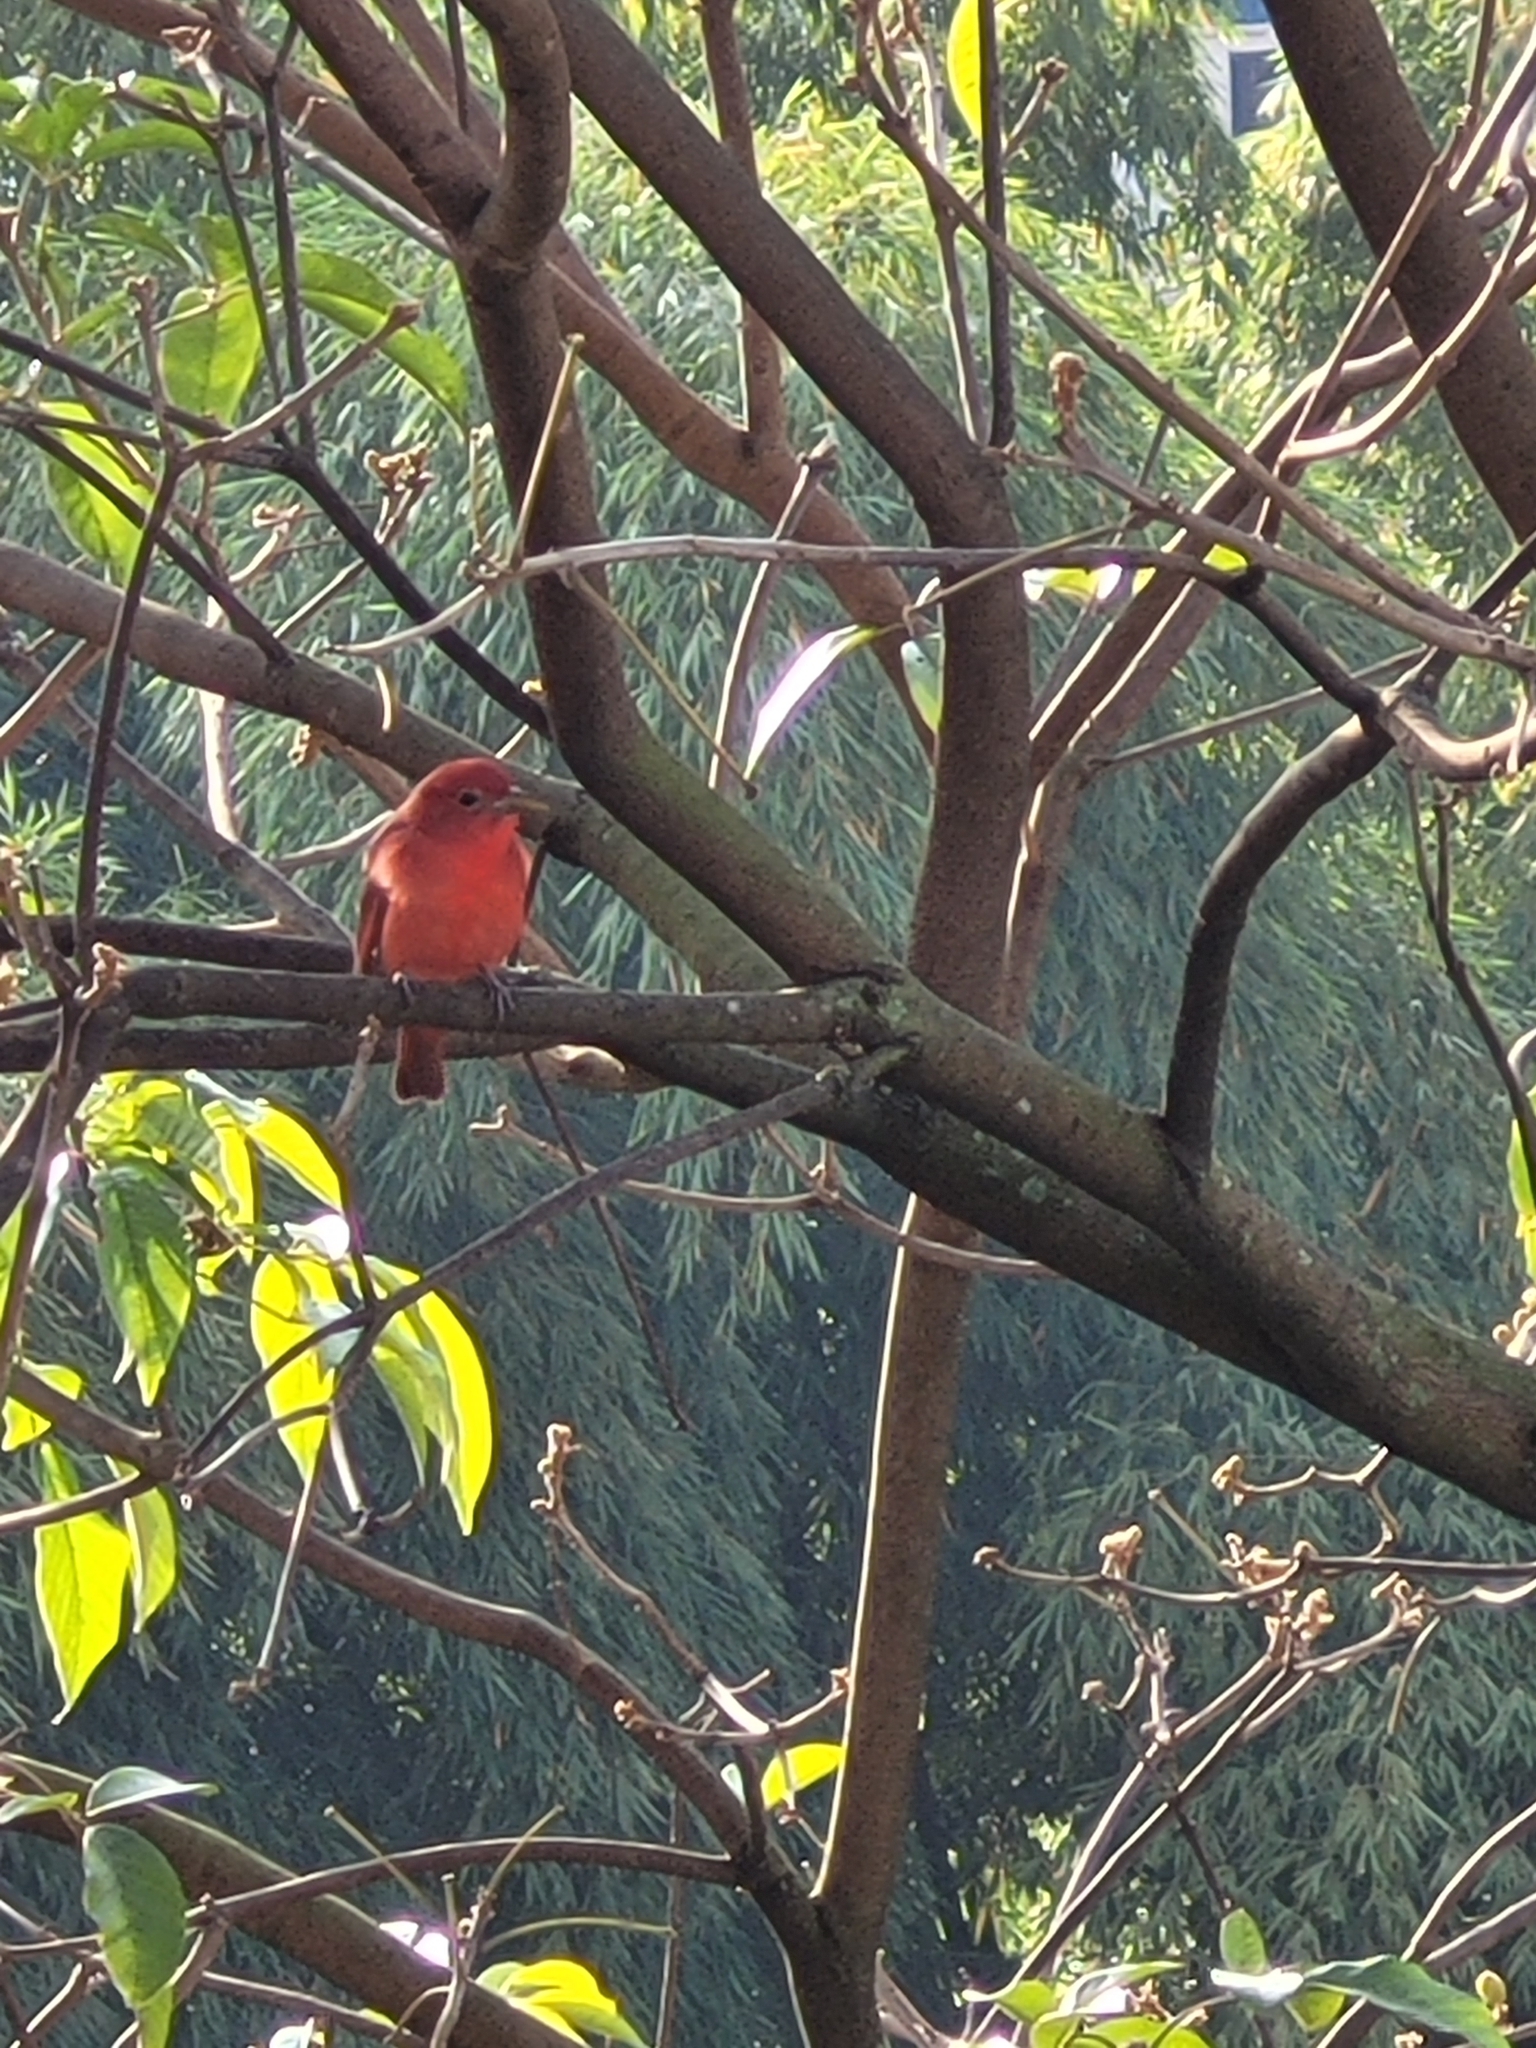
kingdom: Animalia
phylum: Chordata
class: Aves
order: Passeriformes
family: Cardinalidae
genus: Piranga
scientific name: Piranga rubra
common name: Summer tanager
